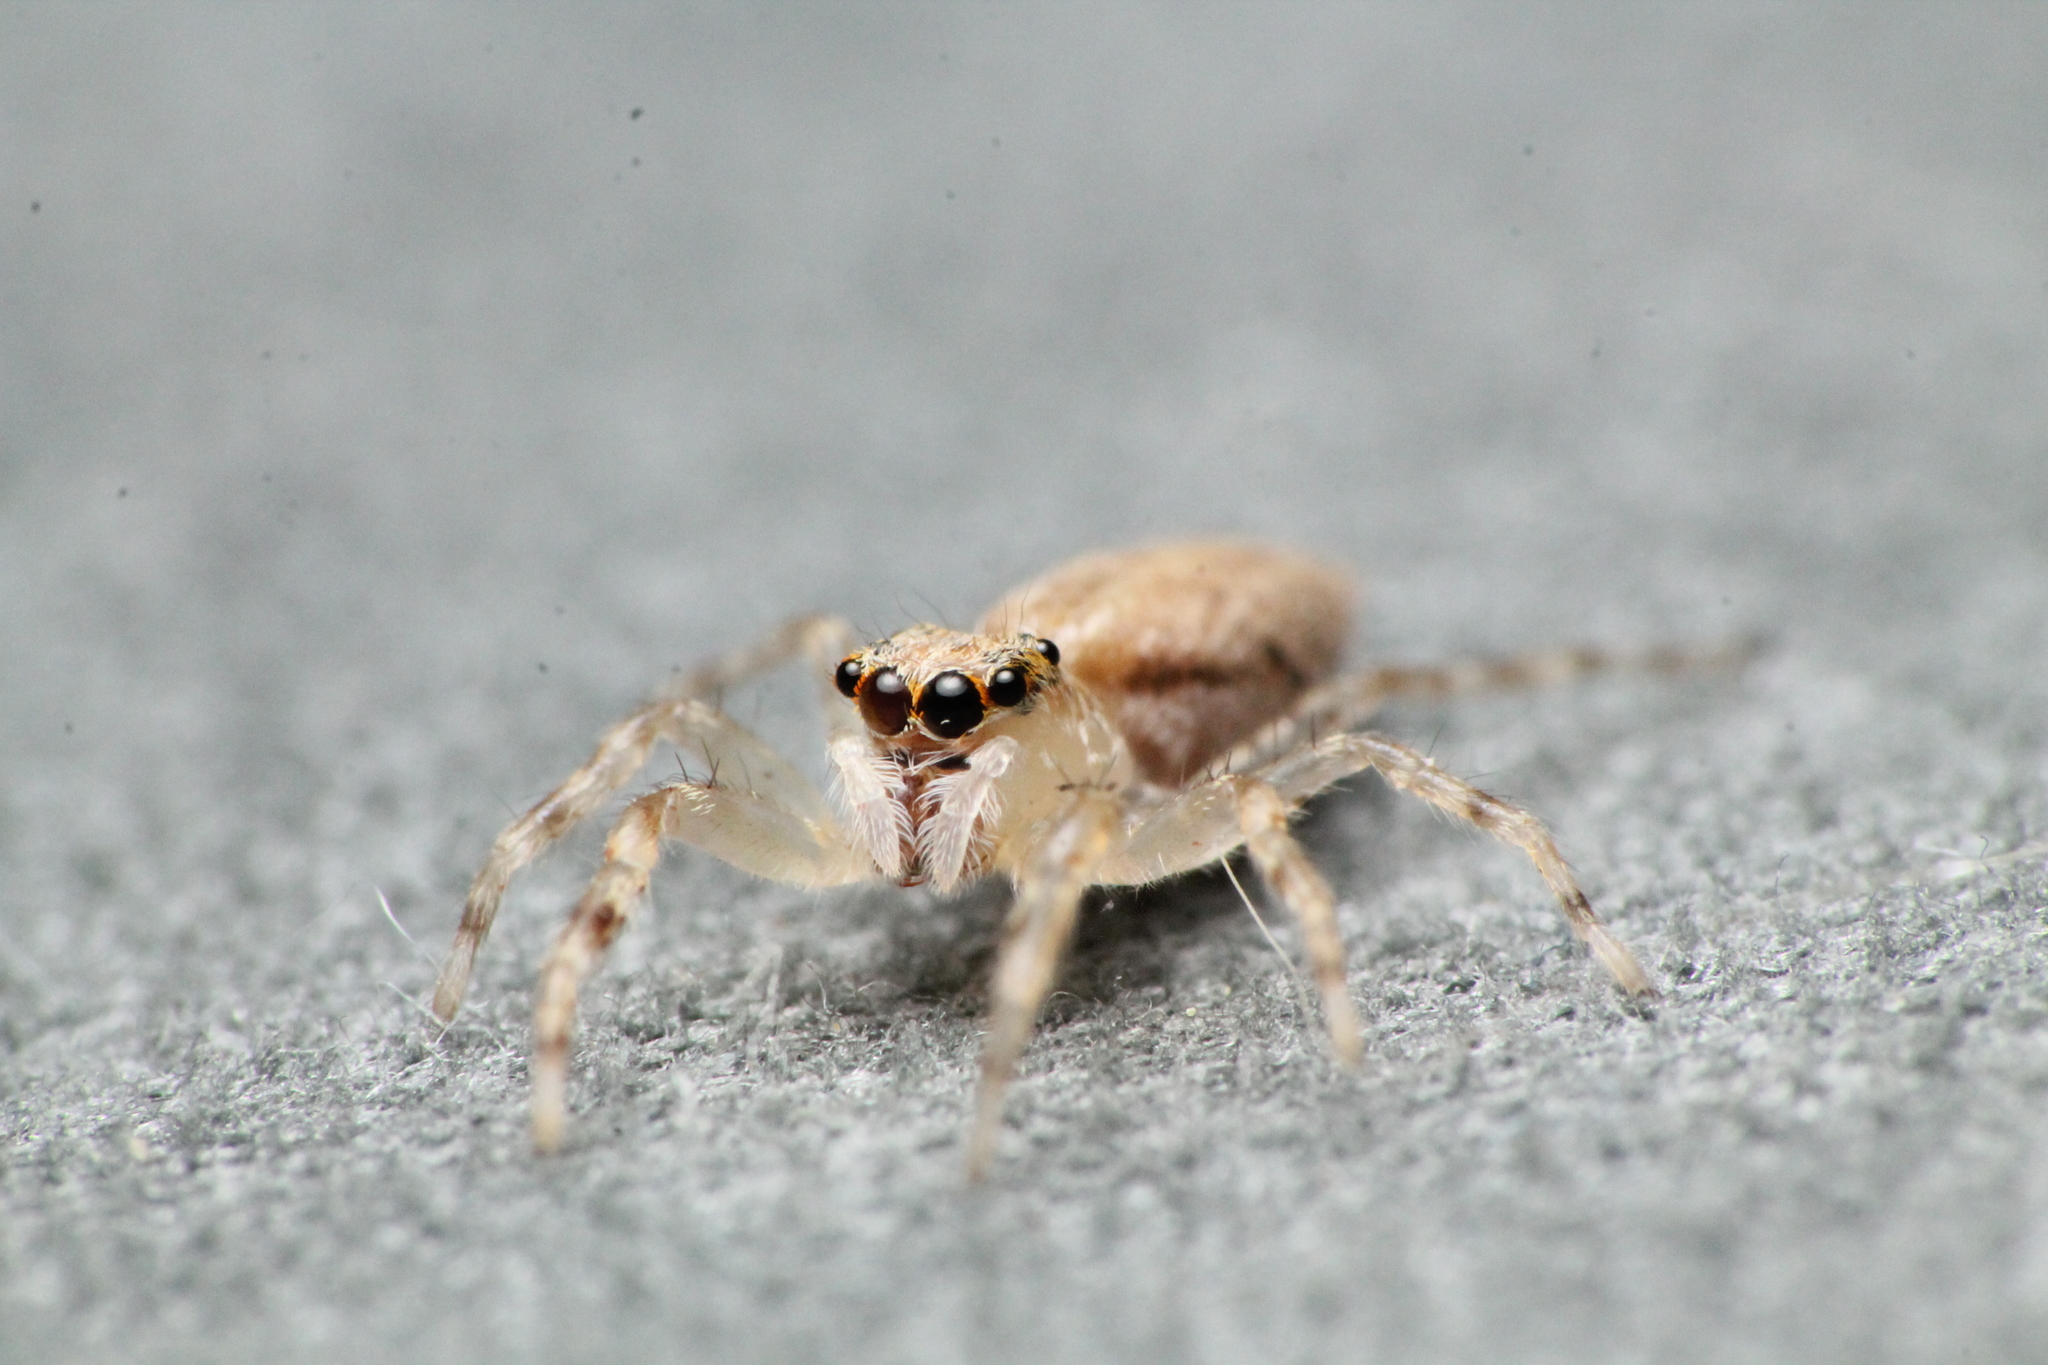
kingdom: Animalia
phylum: Arthropoda
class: Arachnida
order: Araneae
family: Salticidae
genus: Helpis
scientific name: Helpis minitabunda
